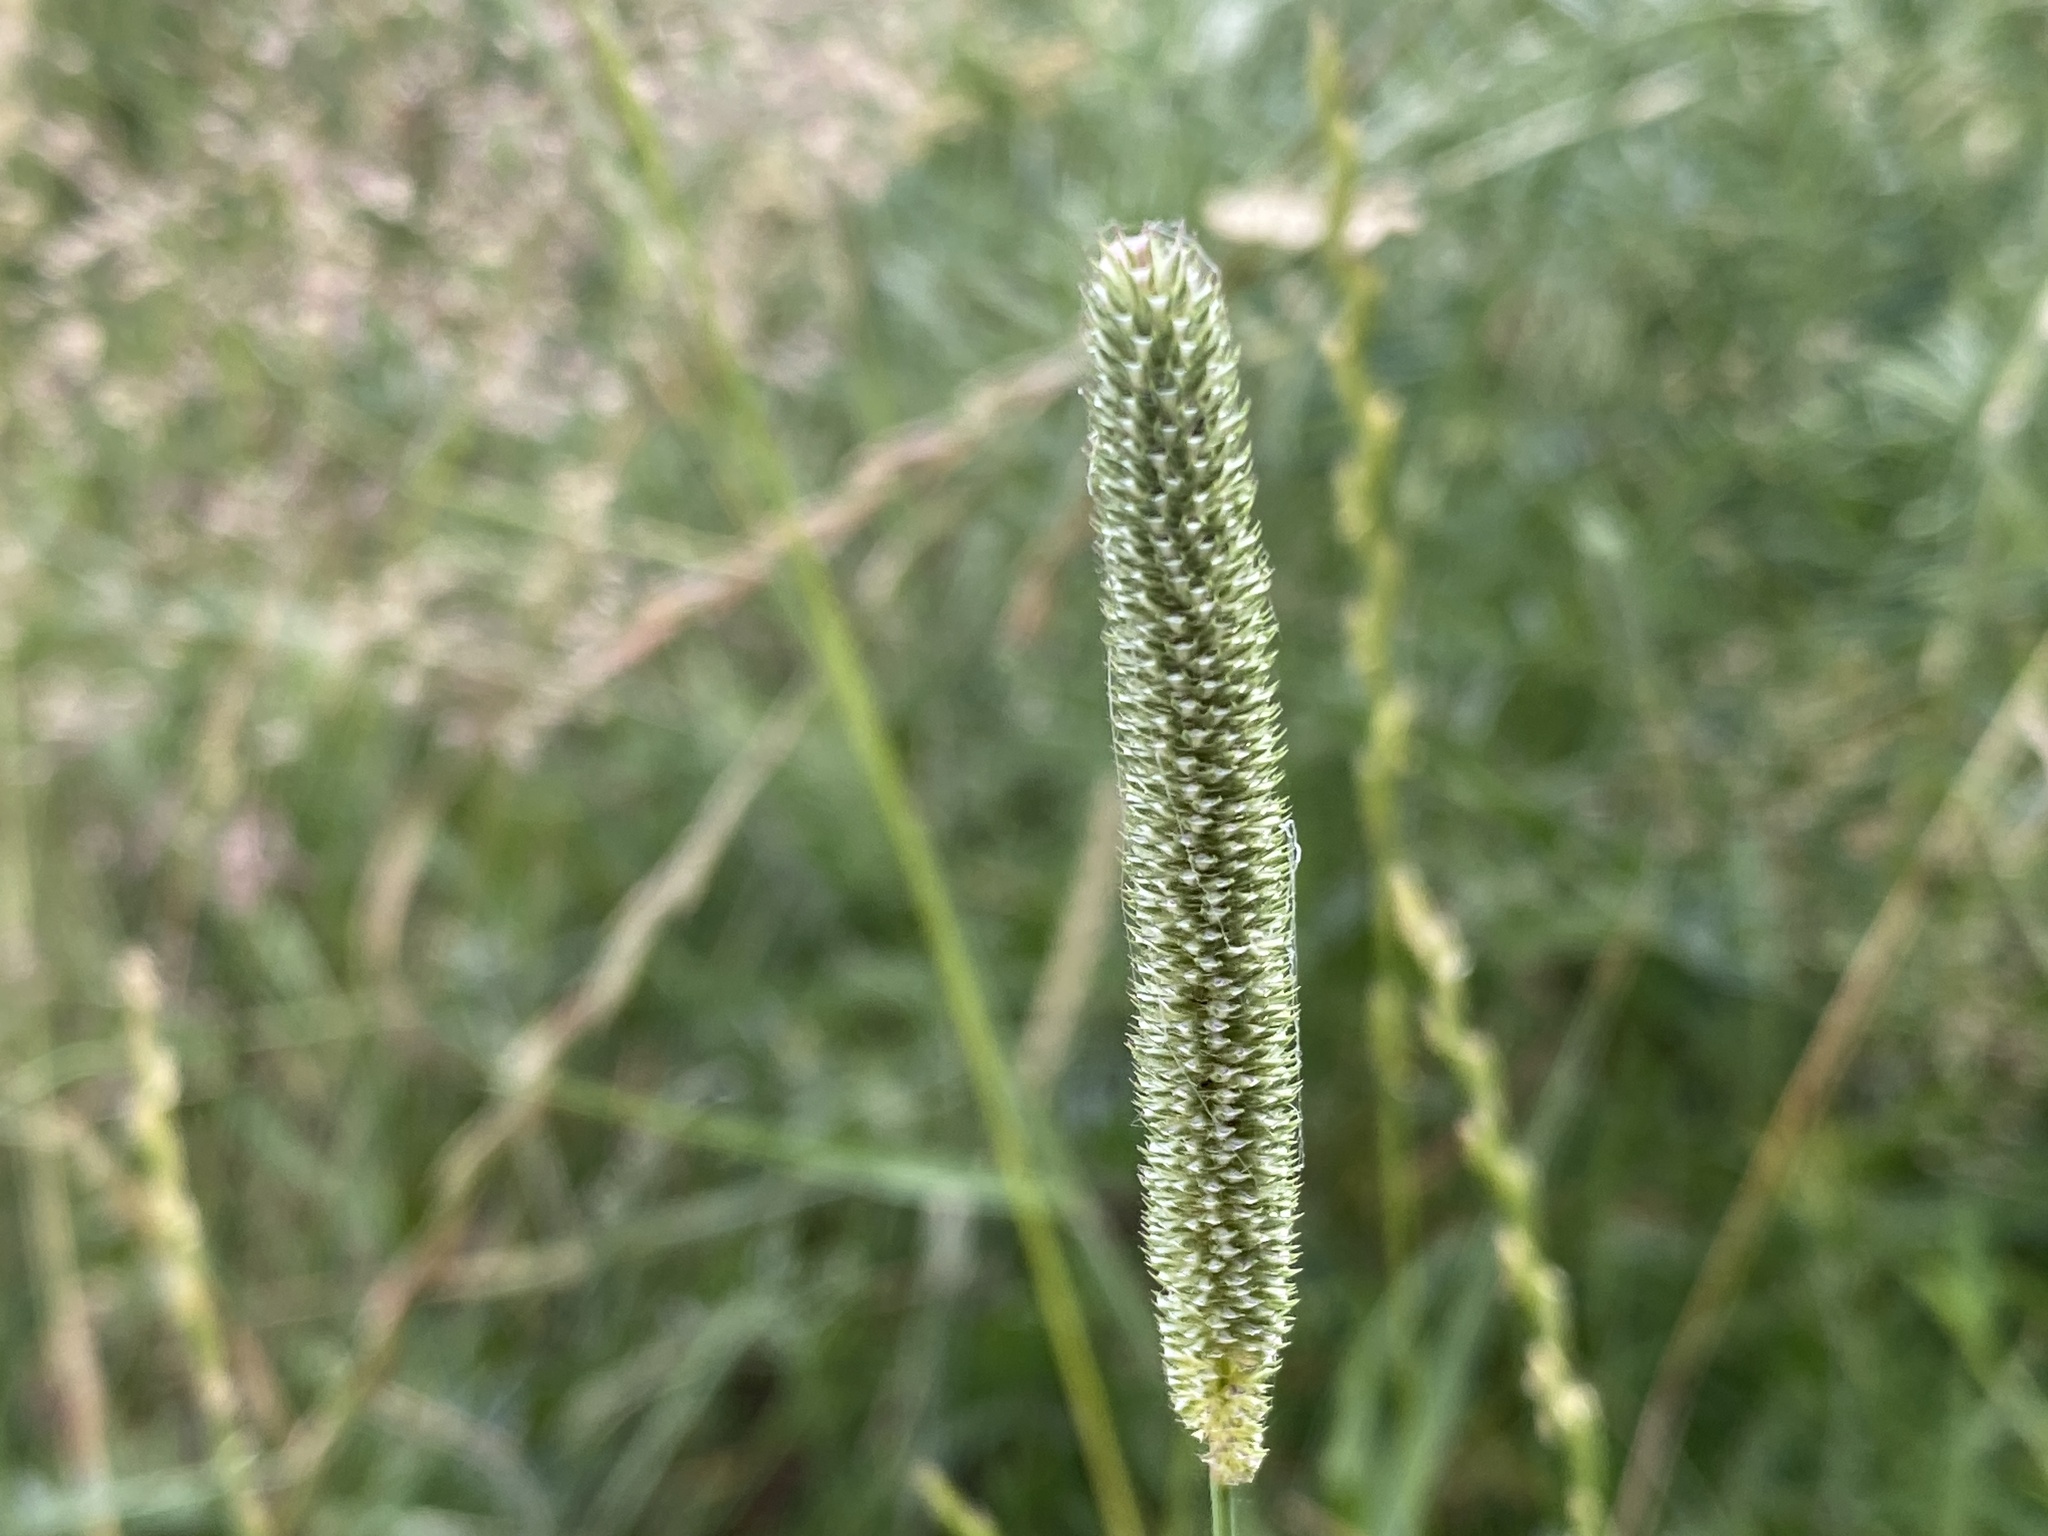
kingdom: Plantae
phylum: Tracheophyta
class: Liliopsida
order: Poales
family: Poaceae
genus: Phleum
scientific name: Phleum pratense
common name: Timothy grass
